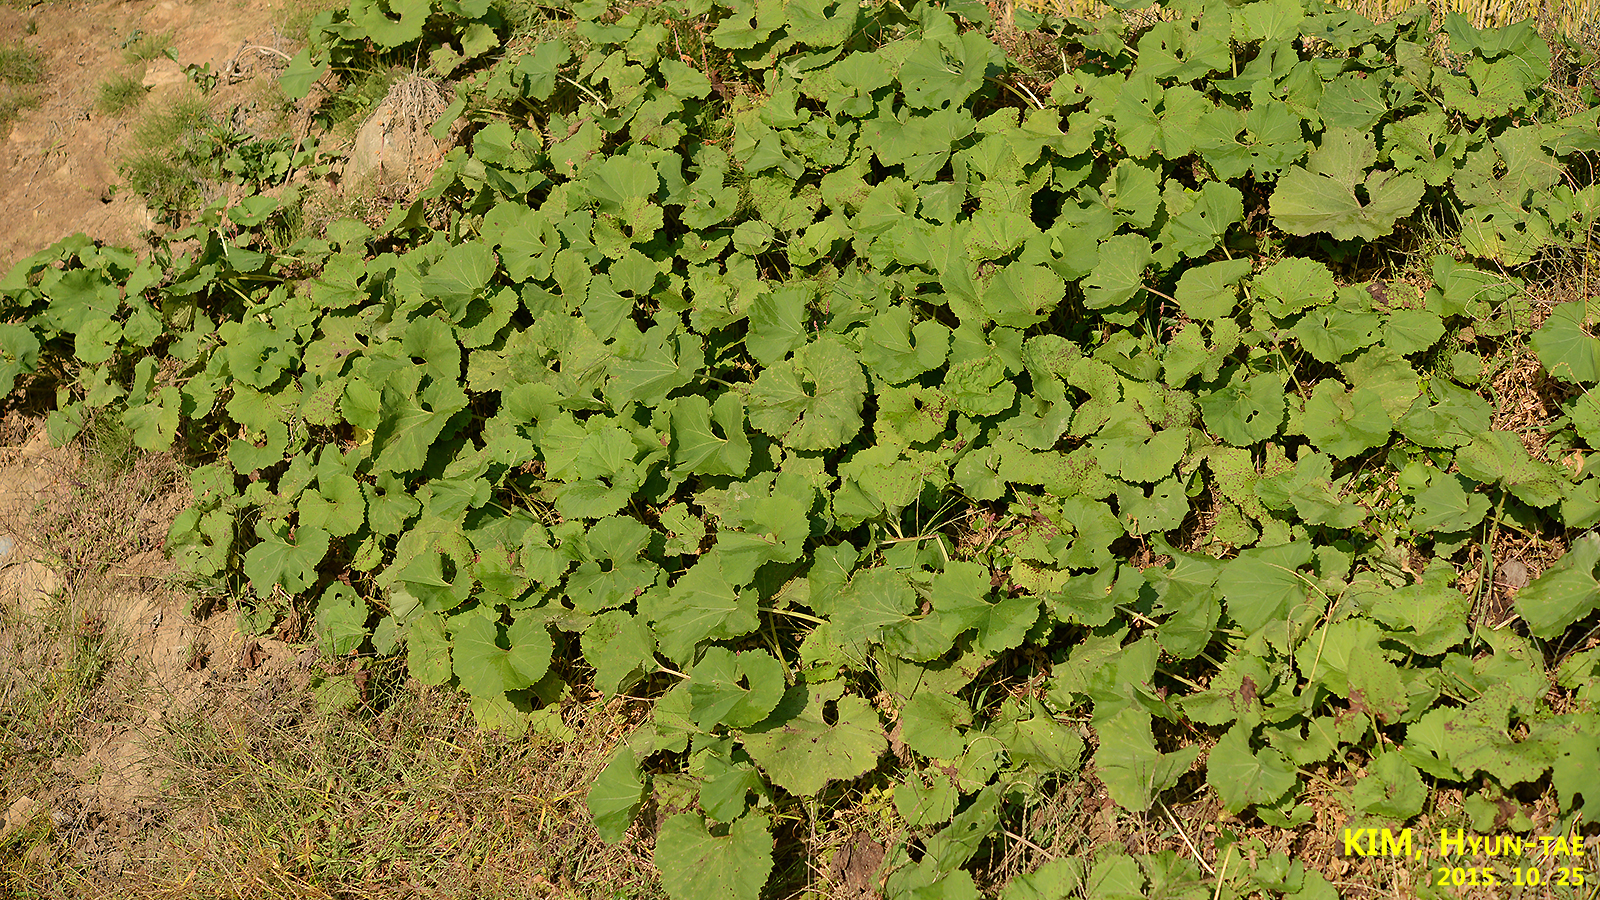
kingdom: Plantae
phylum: Tracheophyta
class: Magnoliopsida
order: Asterales
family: Asteraceae
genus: Petasites
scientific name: Petasites japonicus
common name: Giant butterbur
